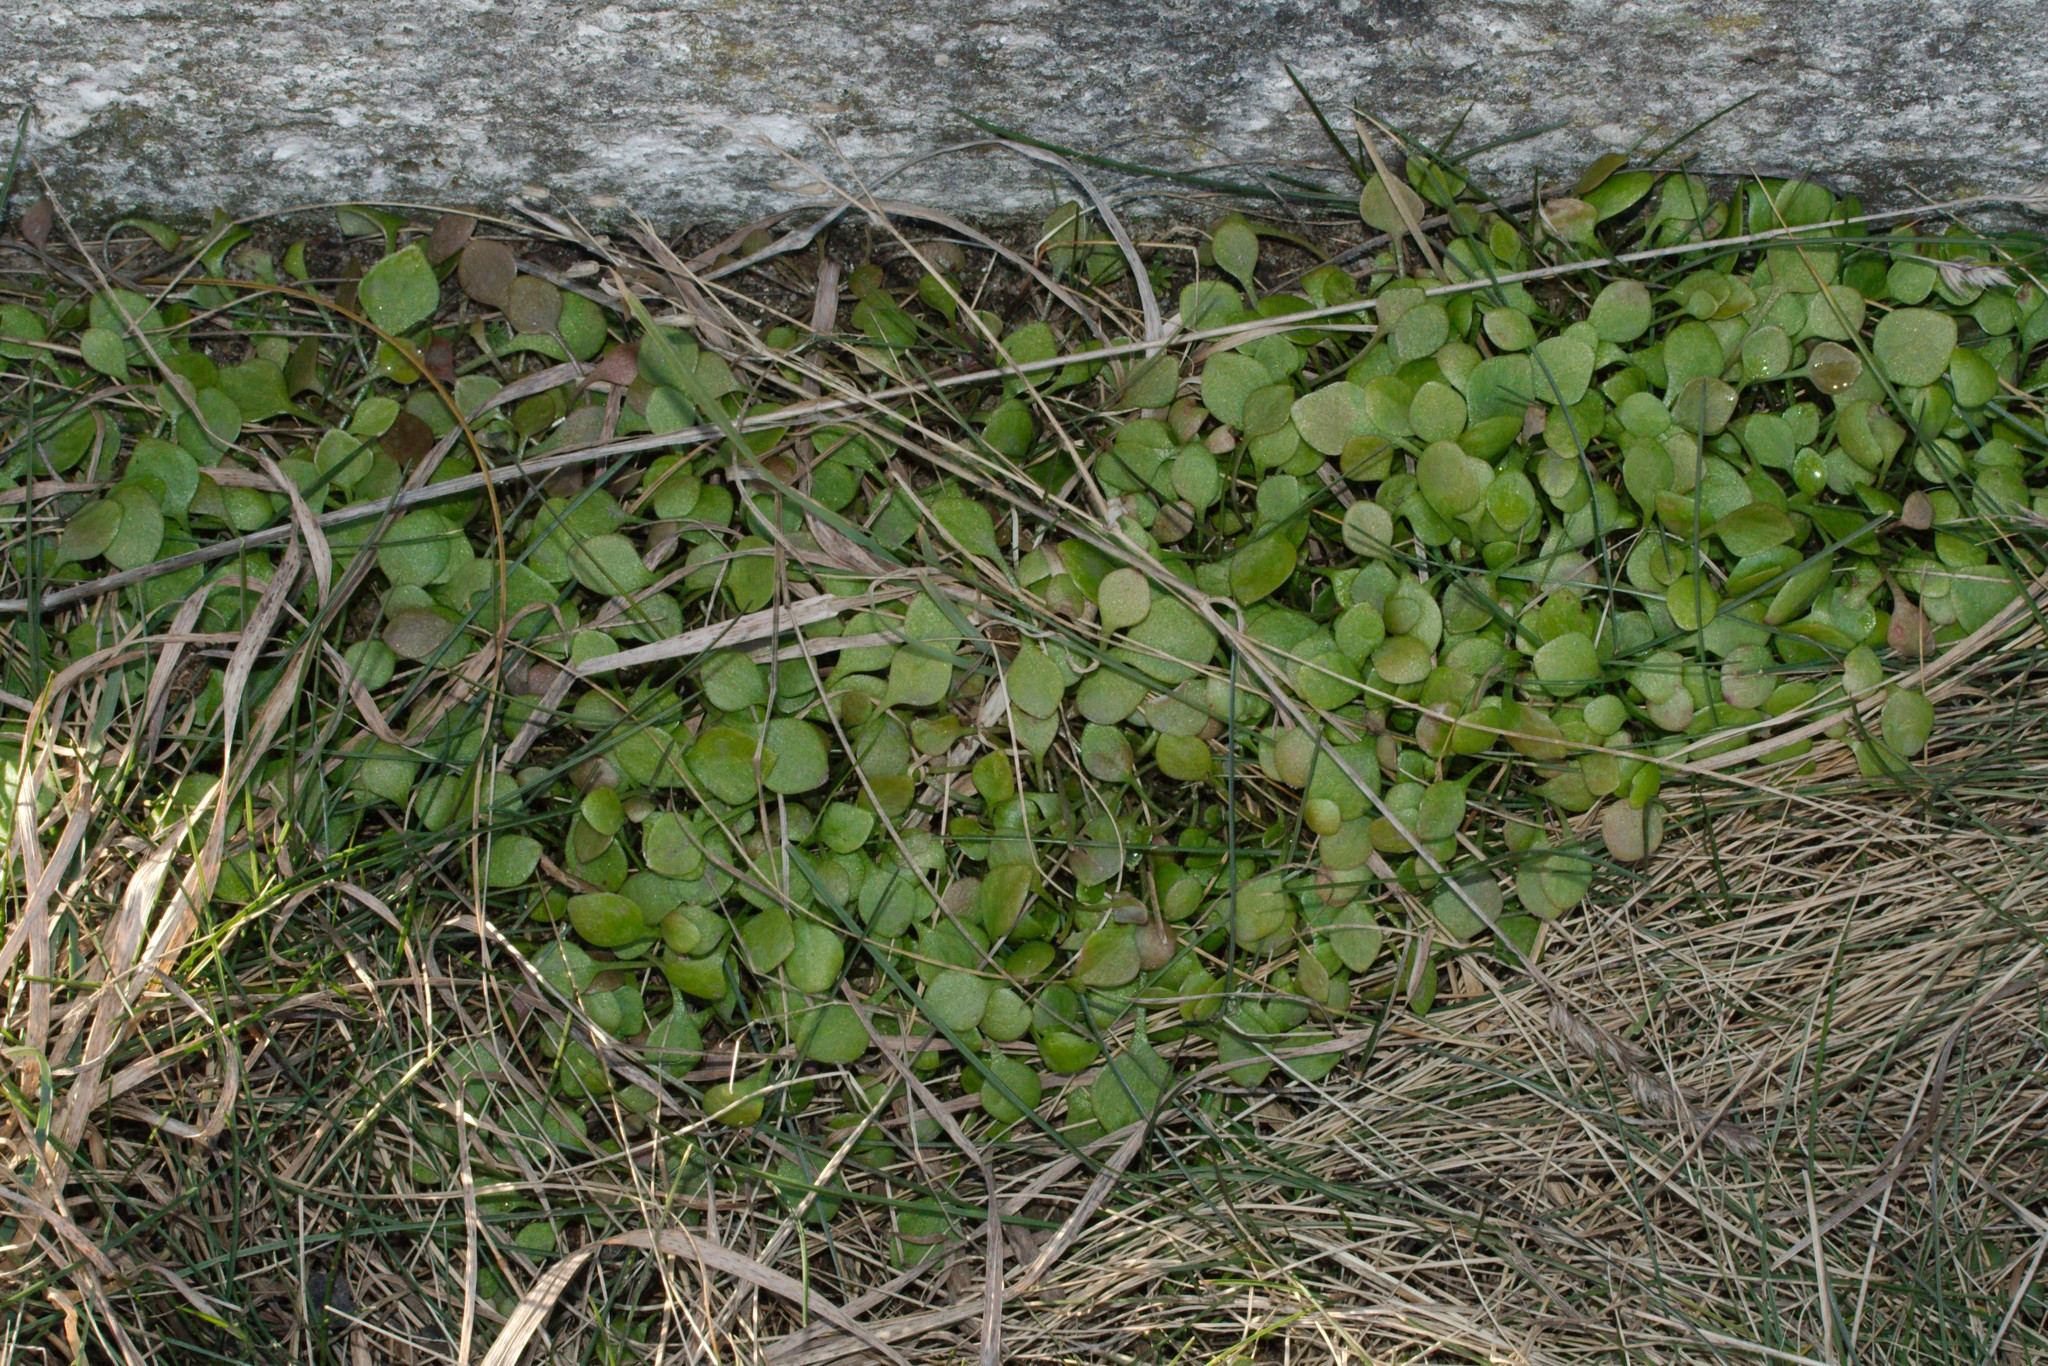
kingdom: Plantae
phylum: Tracheophyta
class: Magnoliopsida
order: Caryophyllales
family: Montiaceae
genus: Claytonia
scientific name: Claytonia perfoliata
